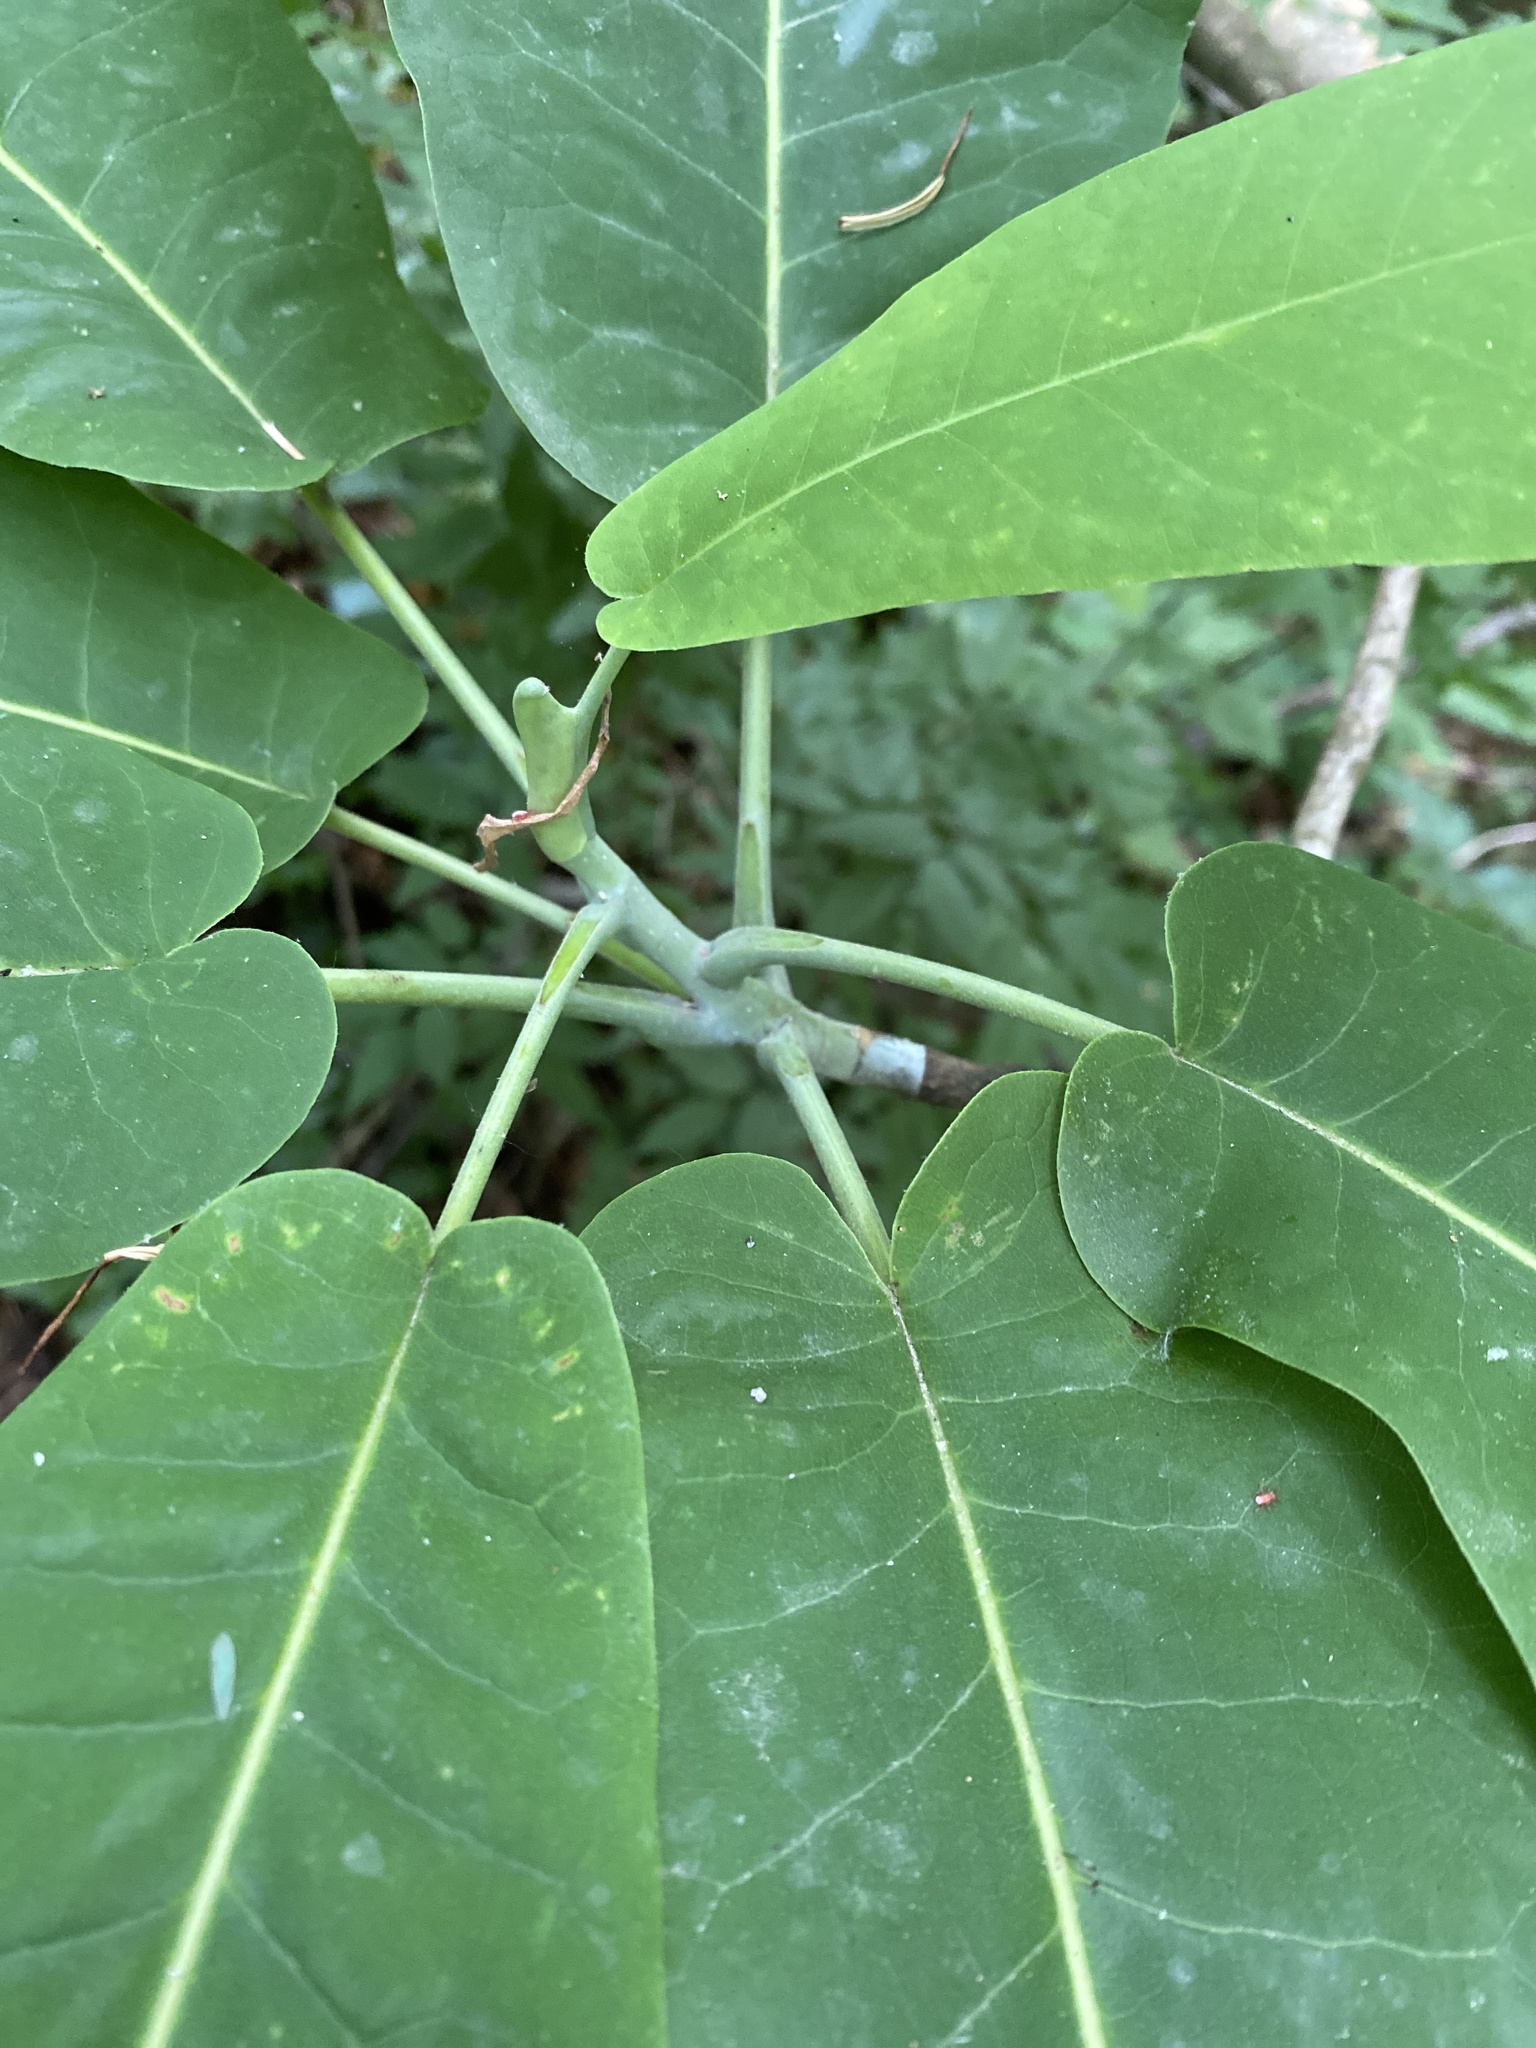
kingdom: Plantae
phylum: Tracheophyta
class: Magnoliopsida
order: Magnoliales
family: Magnoliaceae
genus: Magnolia
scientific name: Magnolia macrophylla
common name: Big-leaf magnolia
